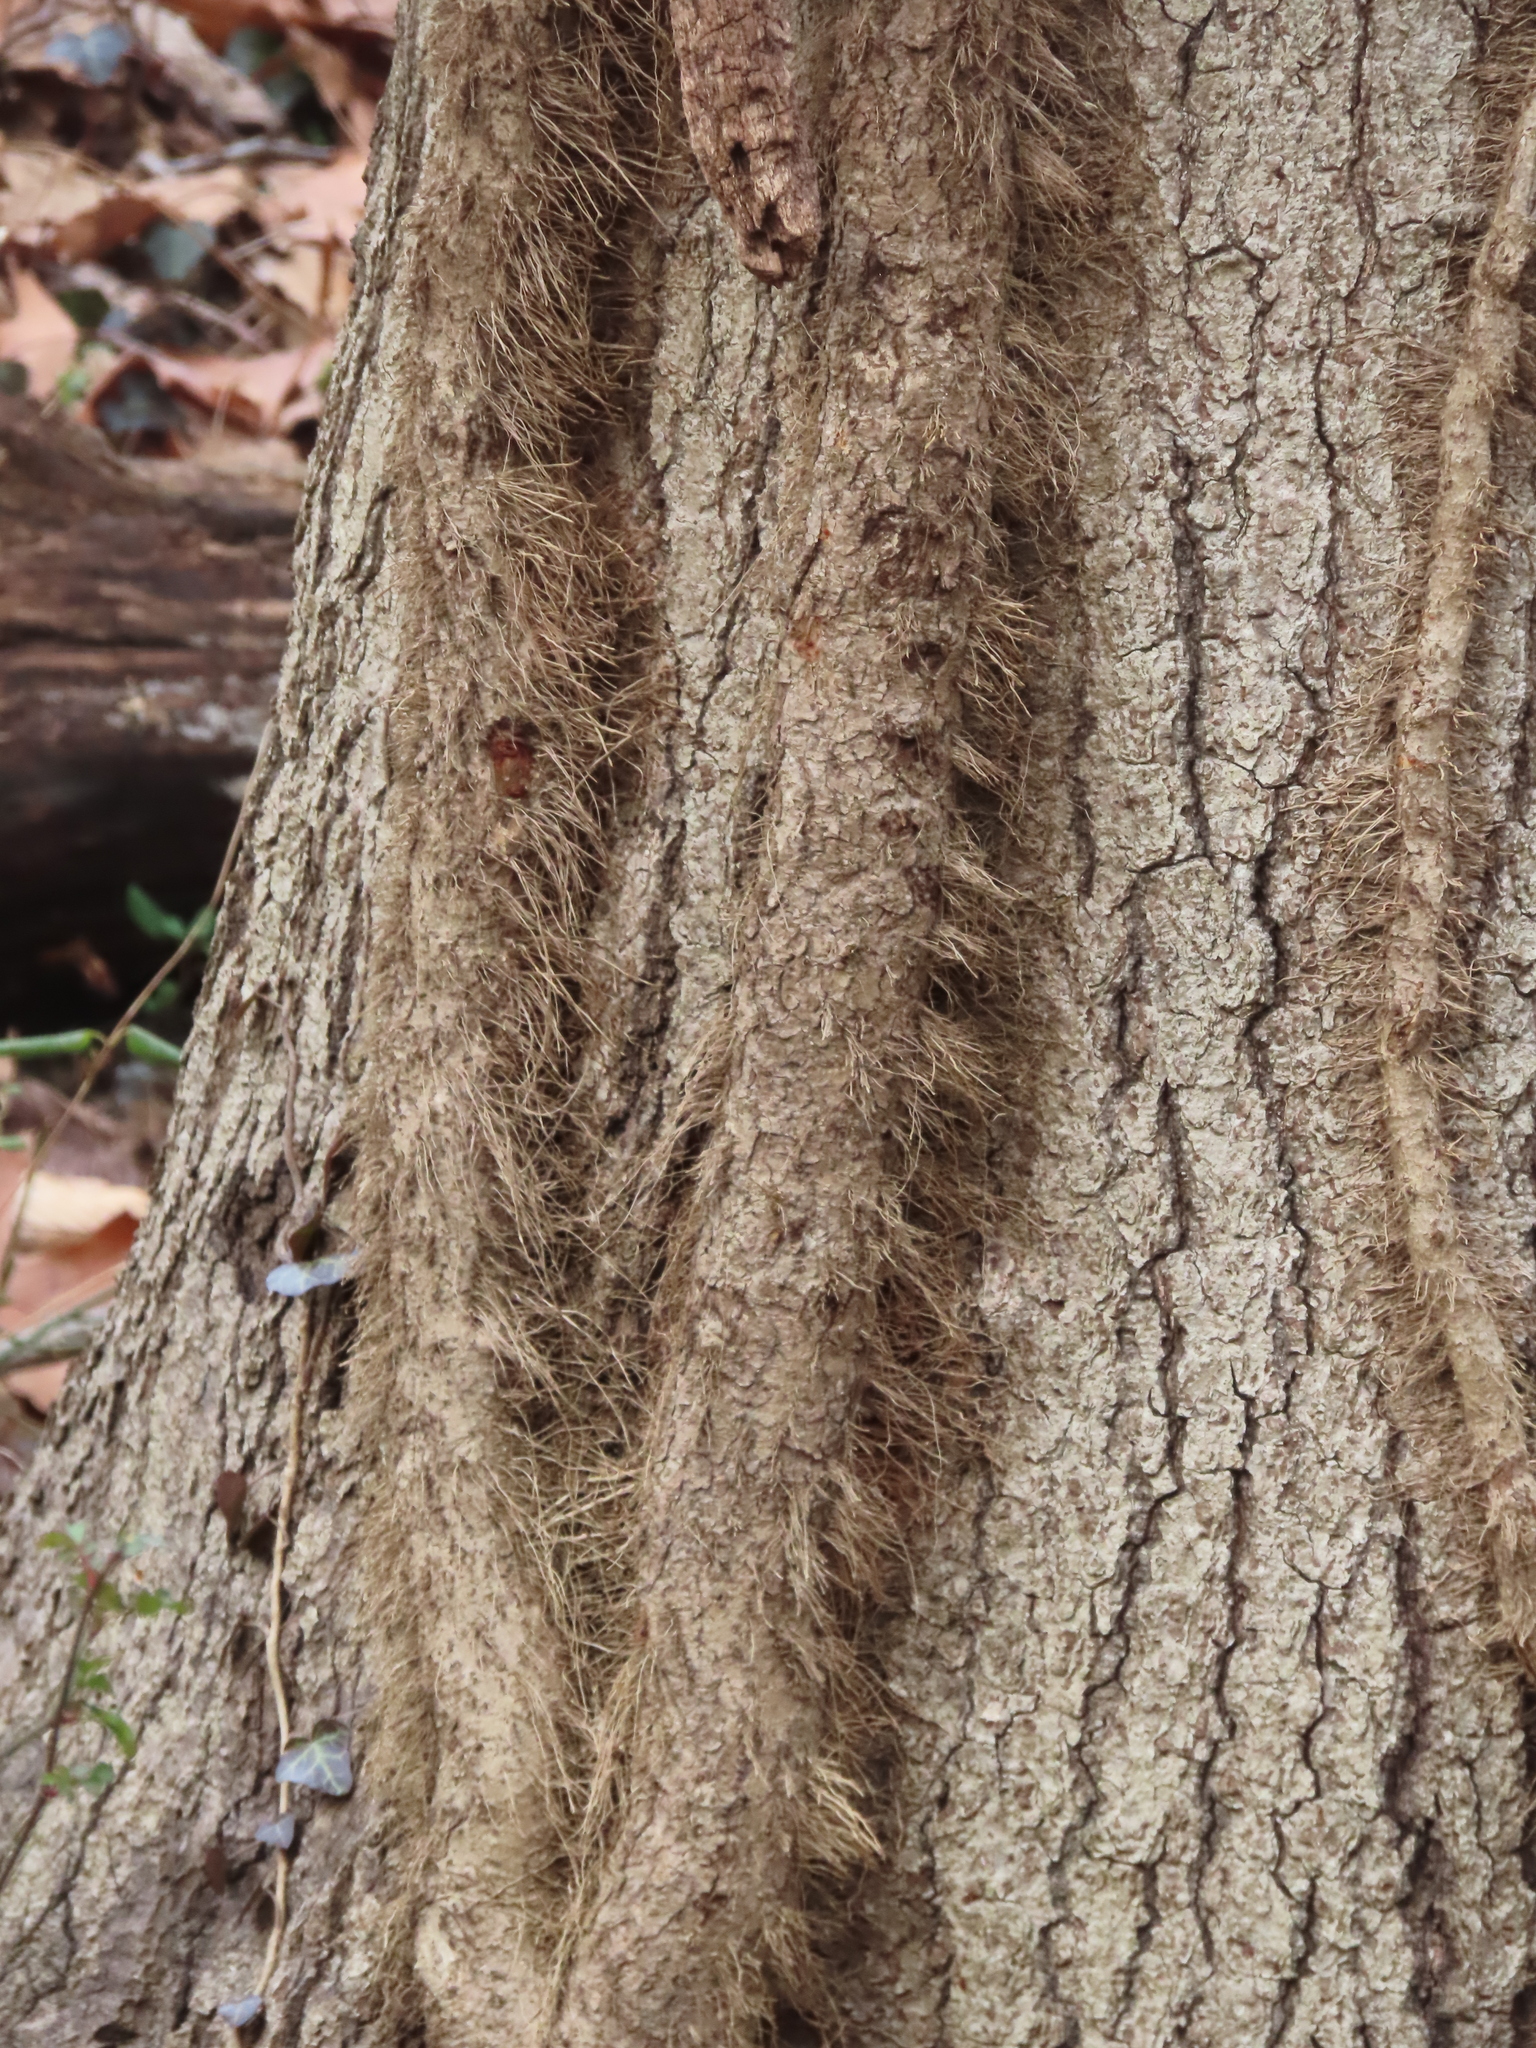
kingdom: Plantae
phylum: Tracheophyta
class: Magnoliopsida
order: Sapindales
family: Anacardiaceae
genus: Toxicodendron
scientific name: Toxicodendron radicans
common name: Poison ivy
